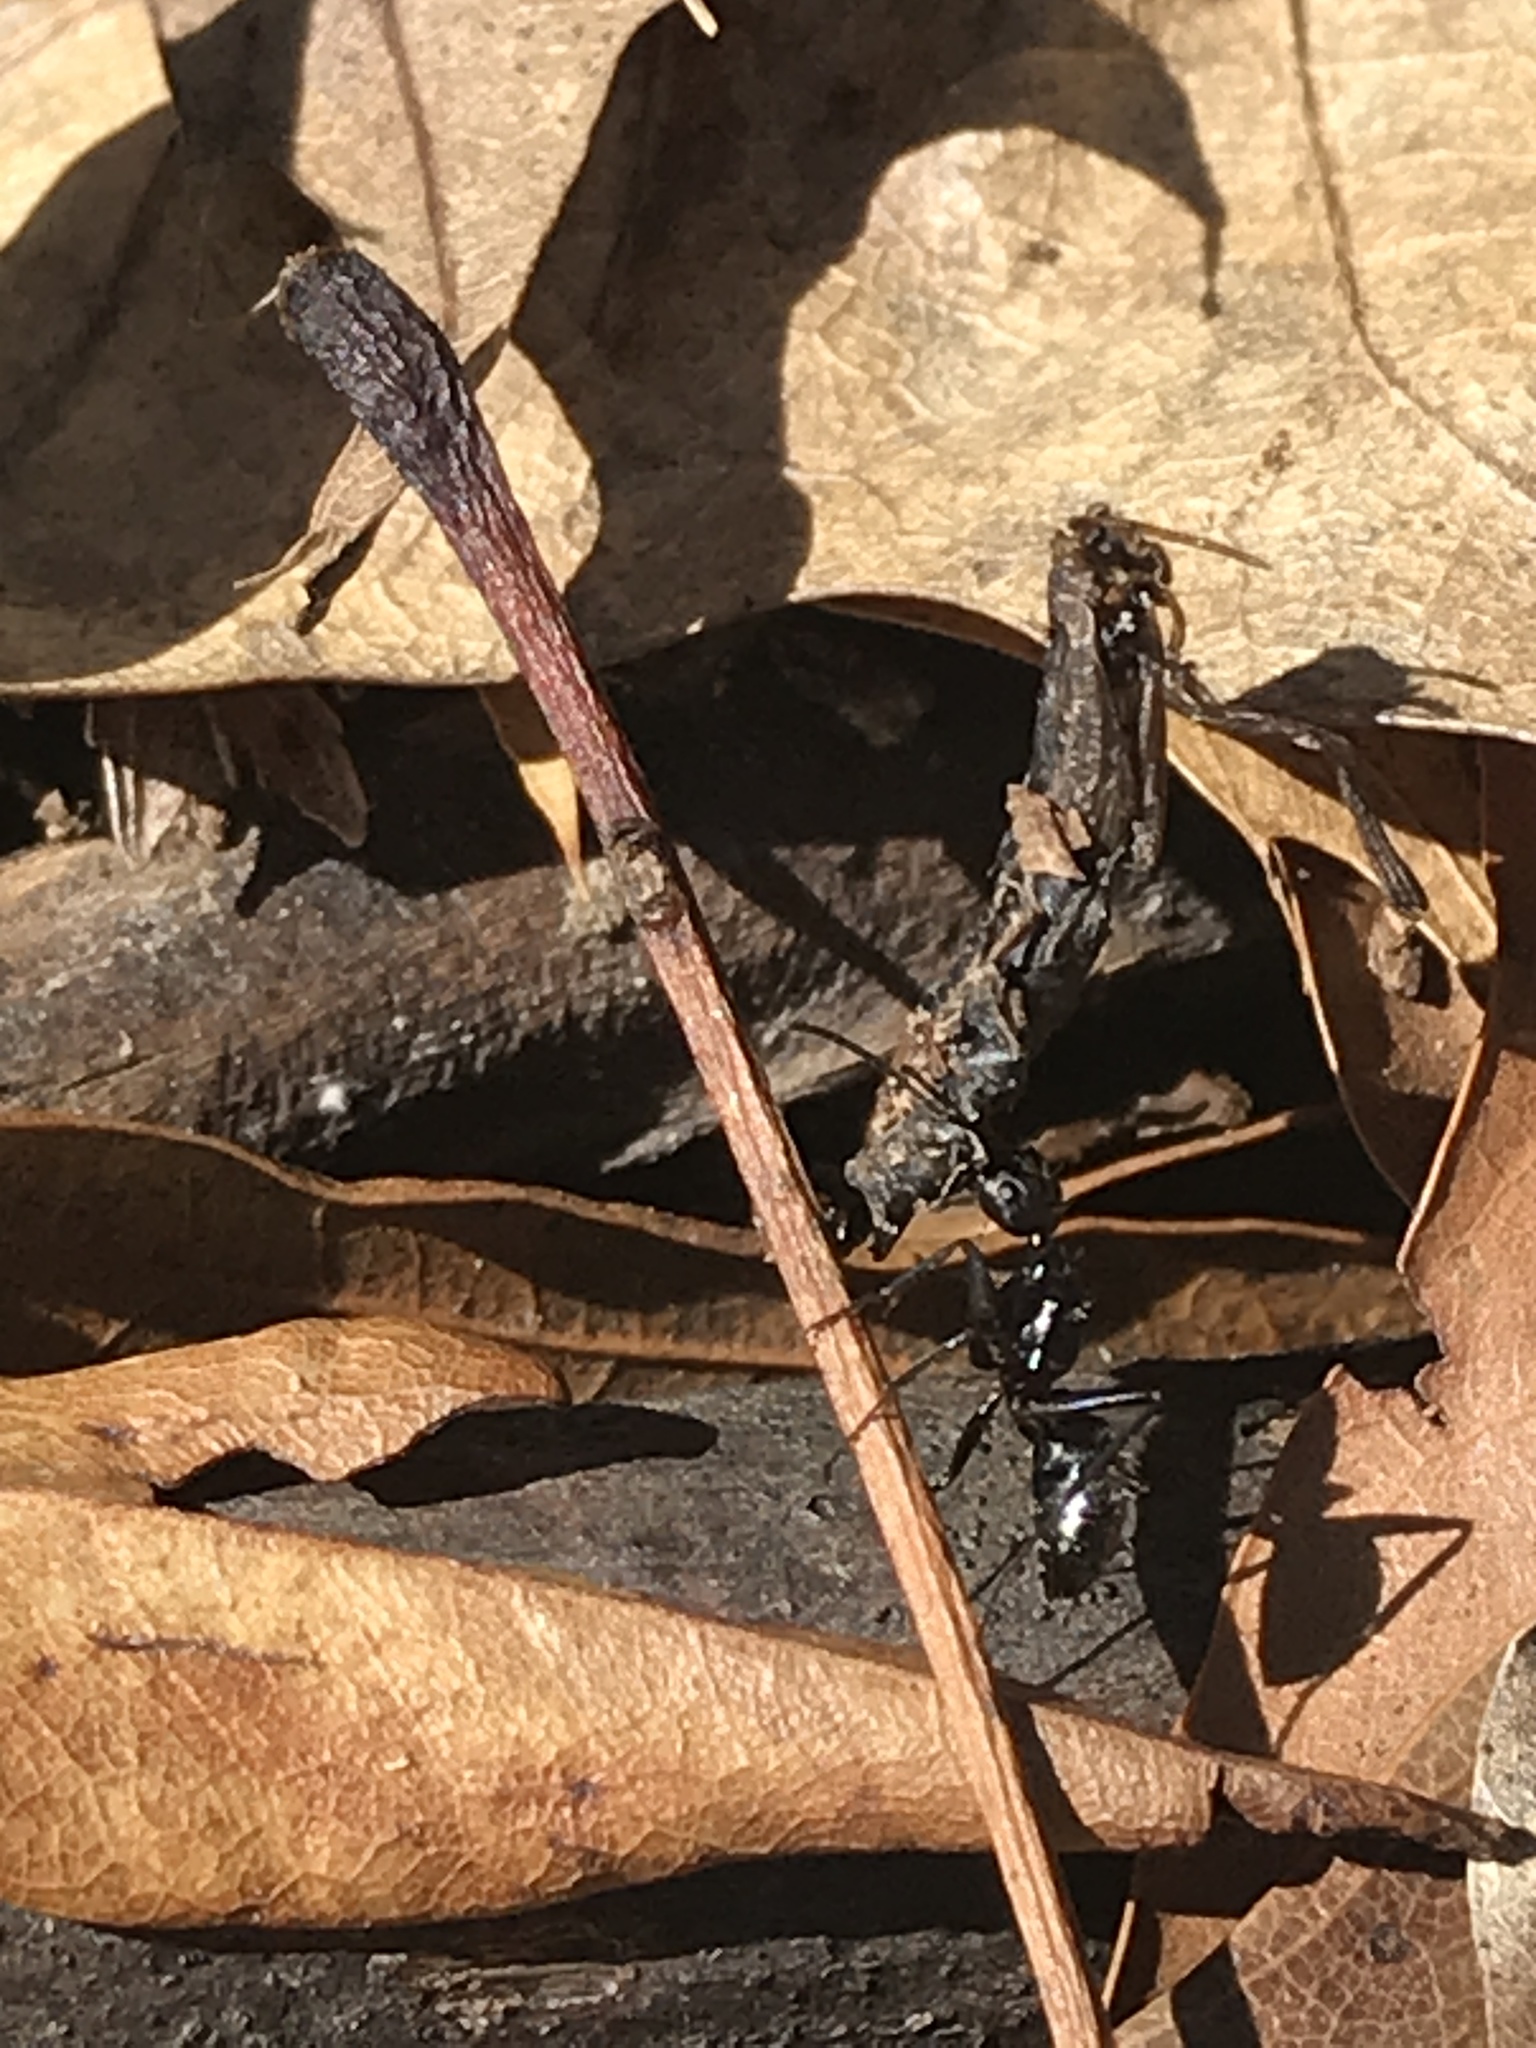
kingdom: Animalia
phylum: Arthropoda
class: Insecta
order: Hymenoptera
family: Formicidae
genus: Camponotus
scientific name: Camponotus pennsylvanicus
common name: Black carpenter ant
